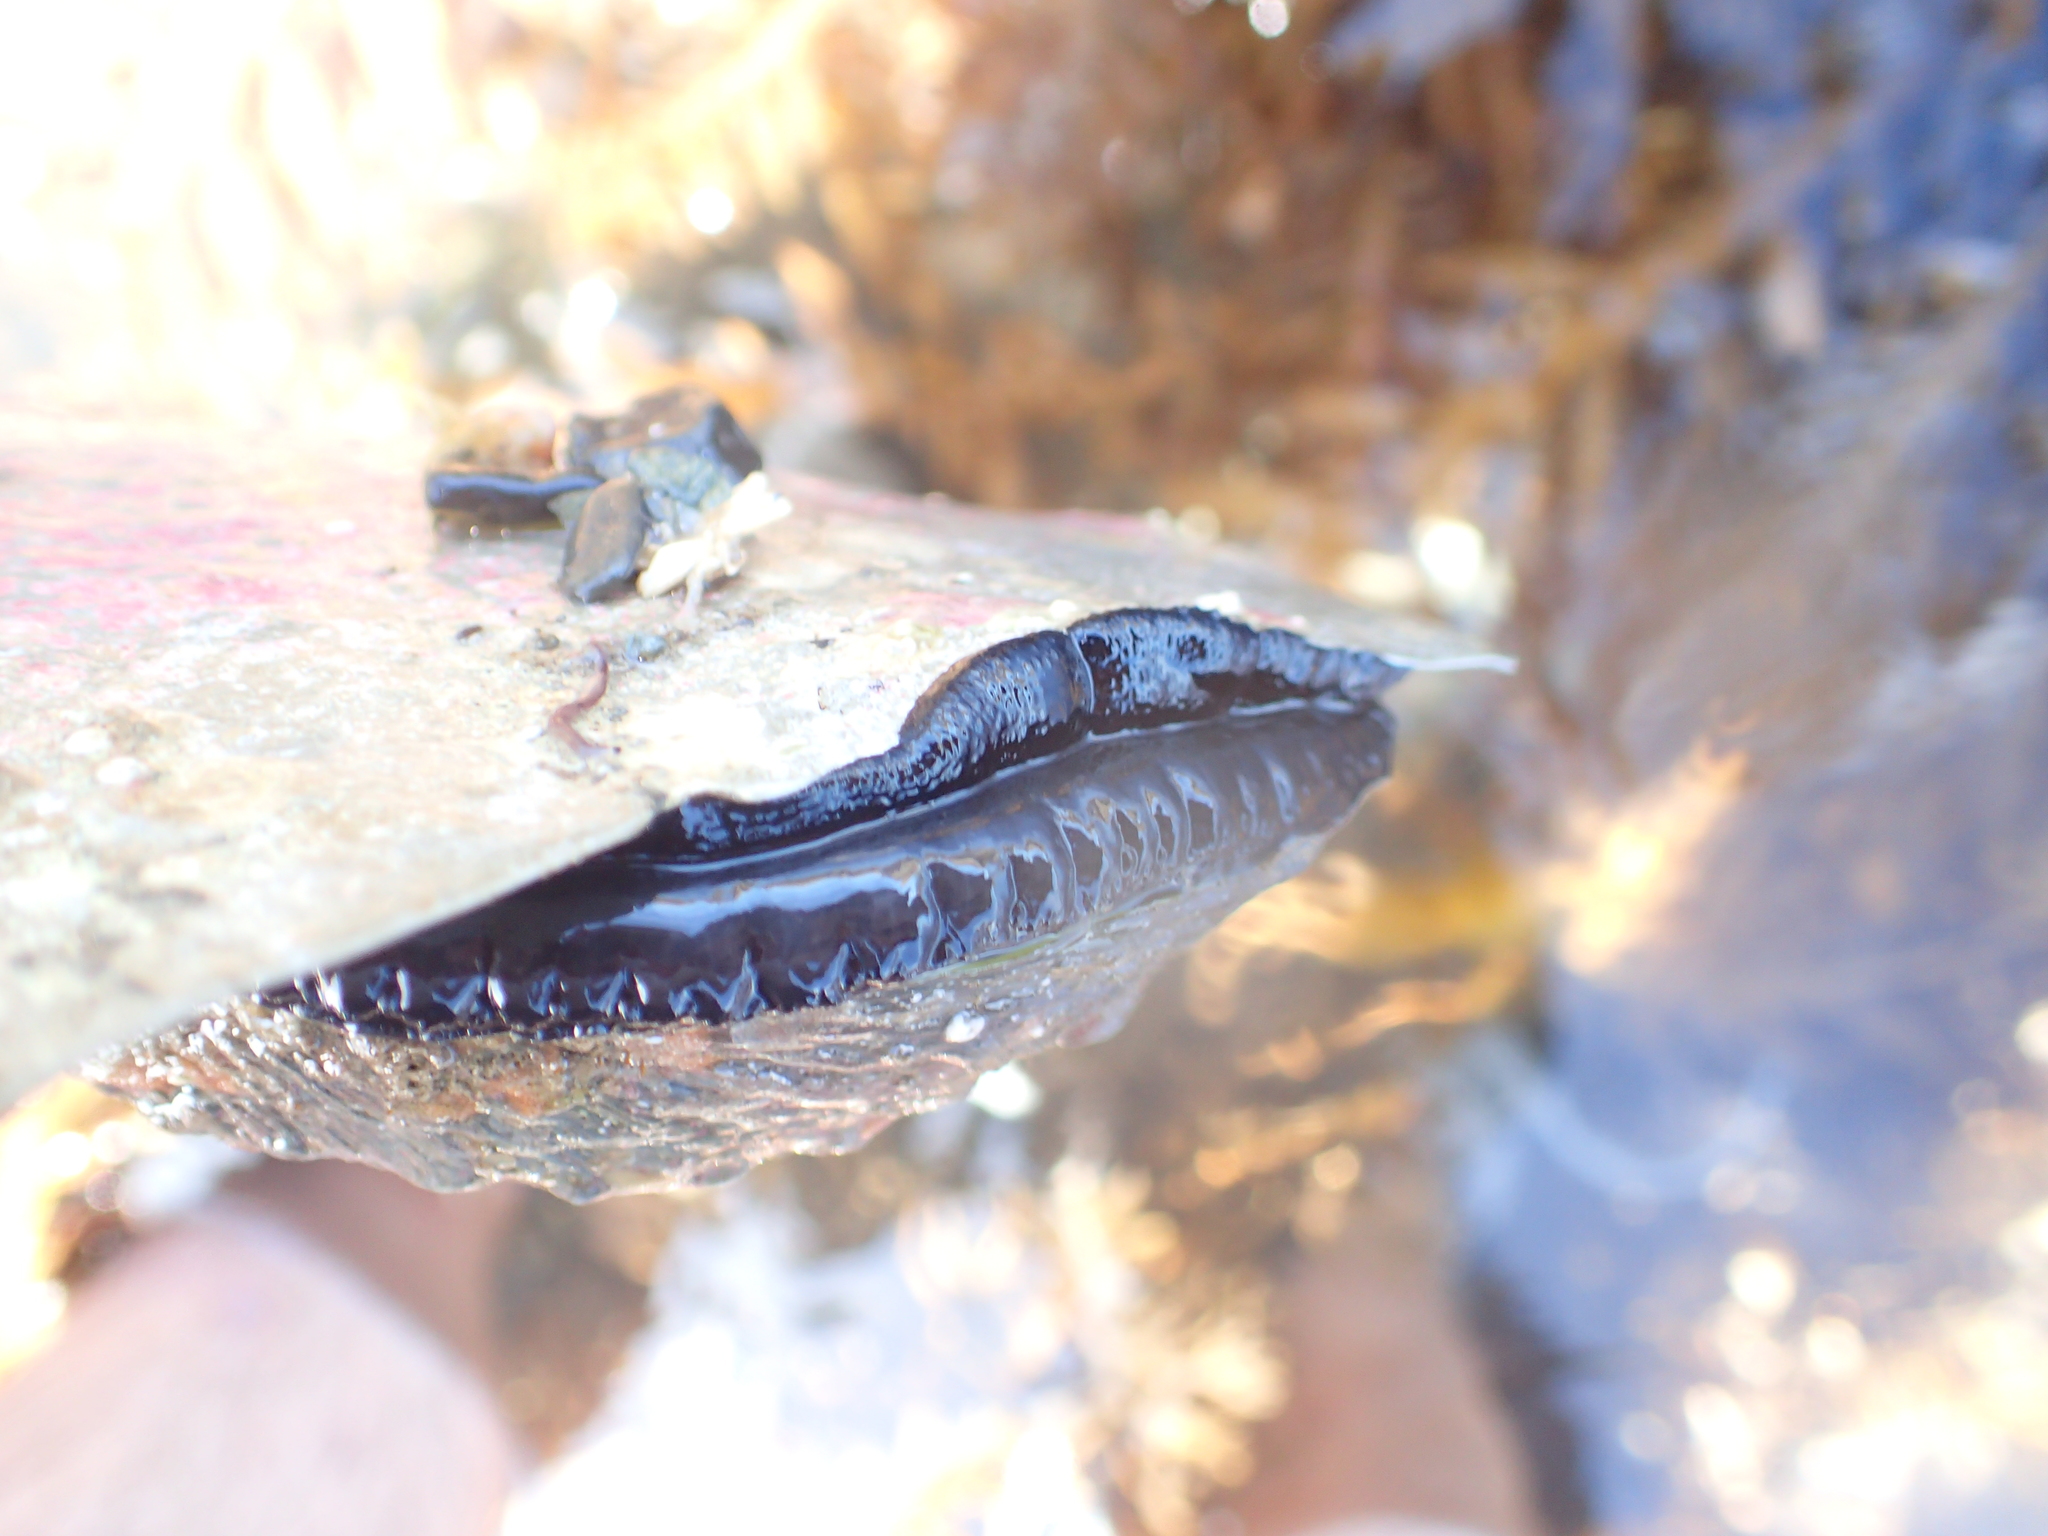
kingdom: Animalia
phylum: Mollusca
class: Gastropoda
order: Lepetellida
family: Haliotidae
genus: Haliotis
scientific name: Haliotis iris
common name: Abalone
